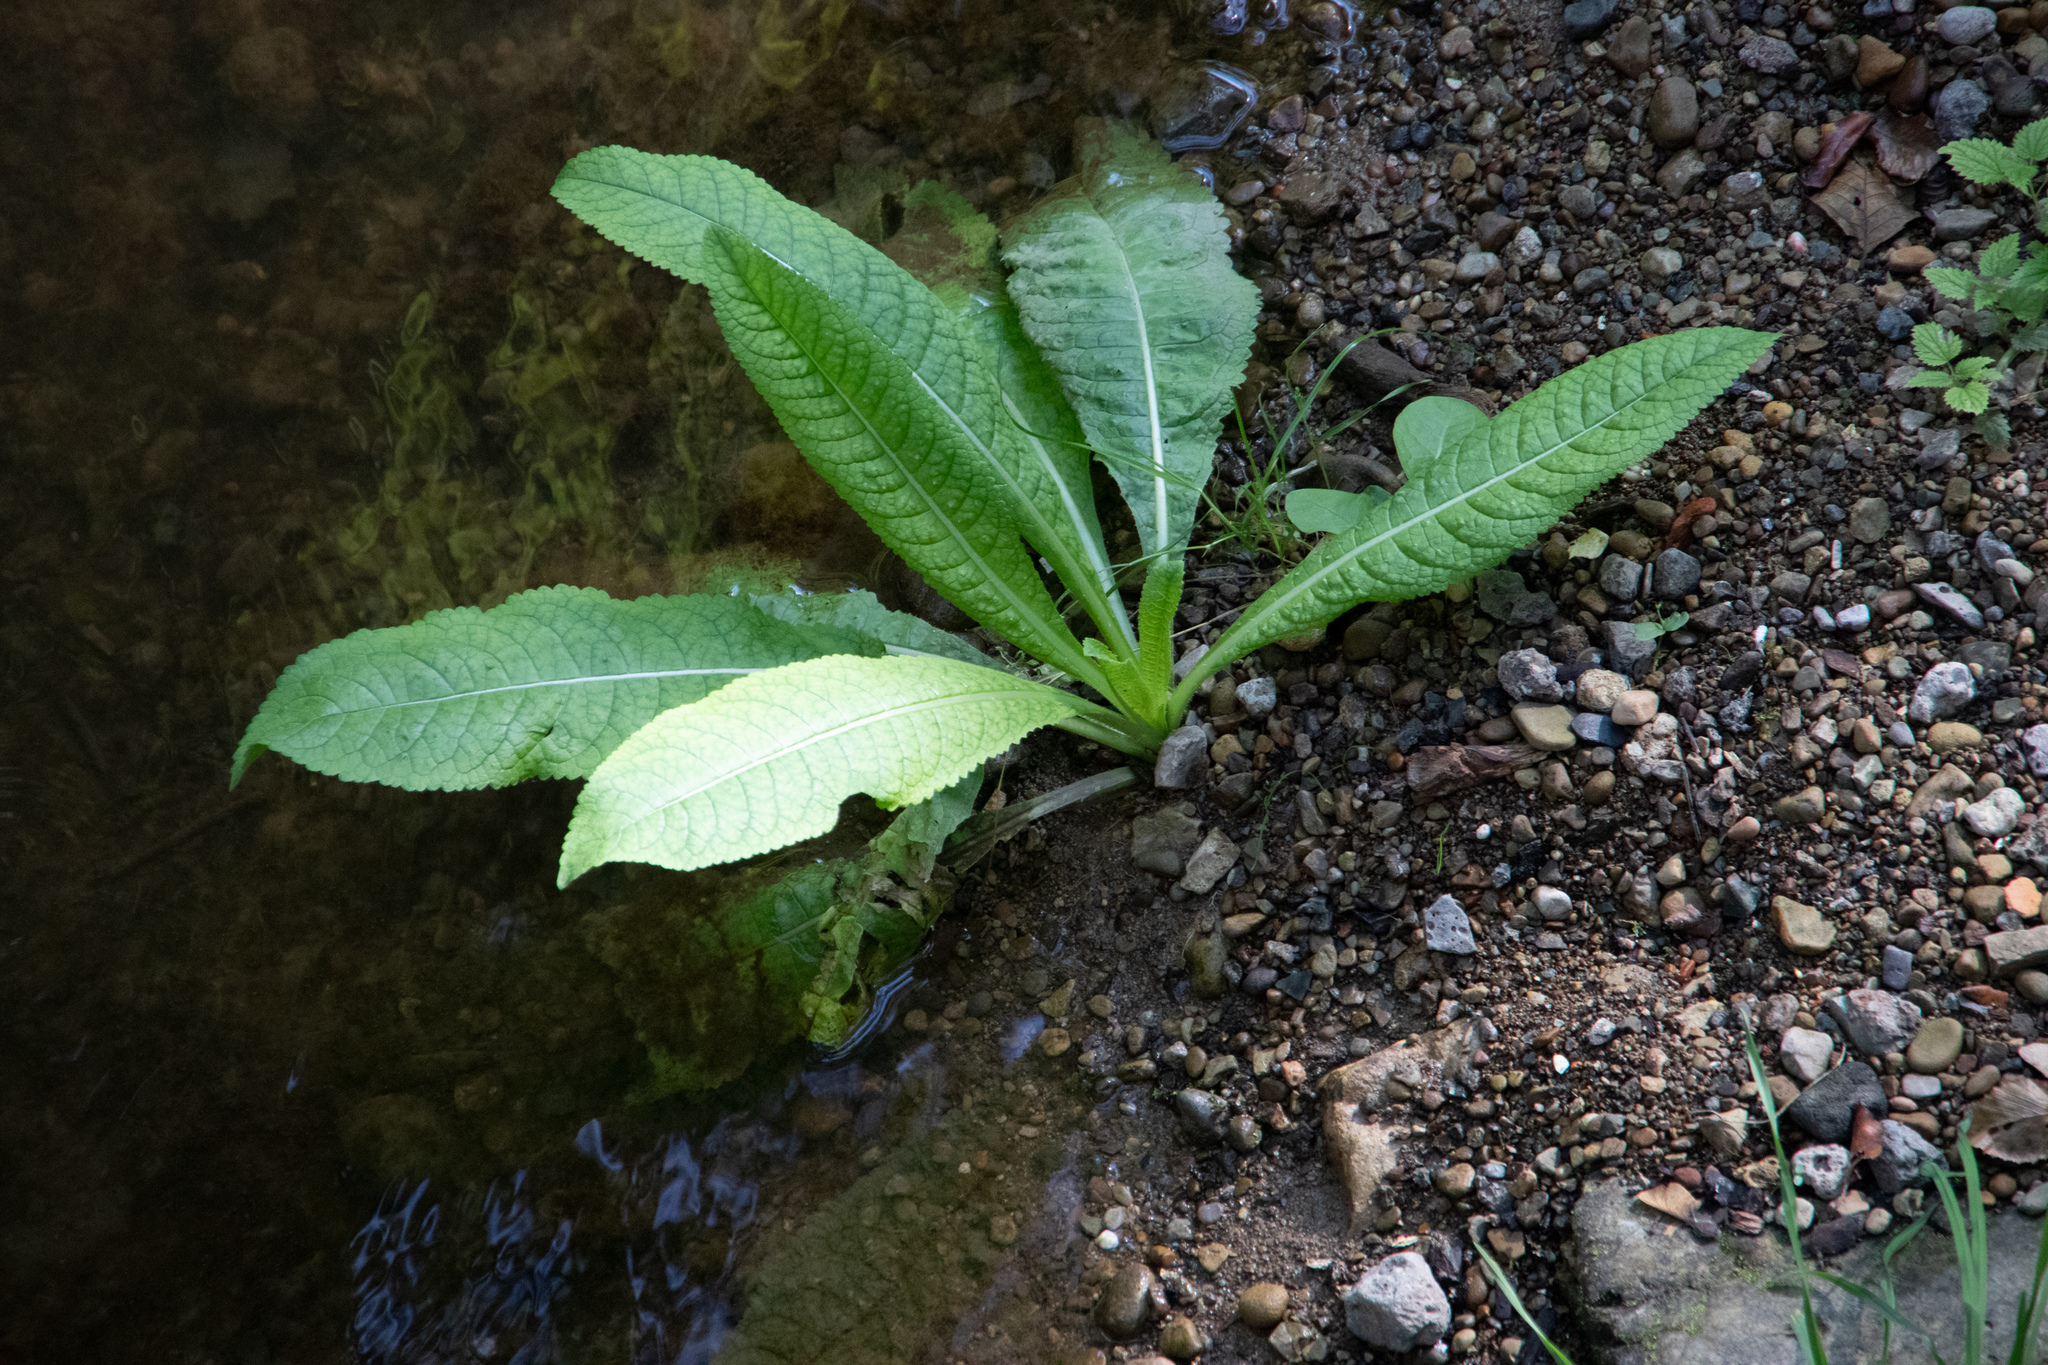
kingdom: Plantae
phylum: Tracheophyta
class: Magnoliopsida
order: Dipsacales
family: Caprifoliaceae
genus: Dipsacus
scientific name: Dipsacus fullonum
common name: Teasel
